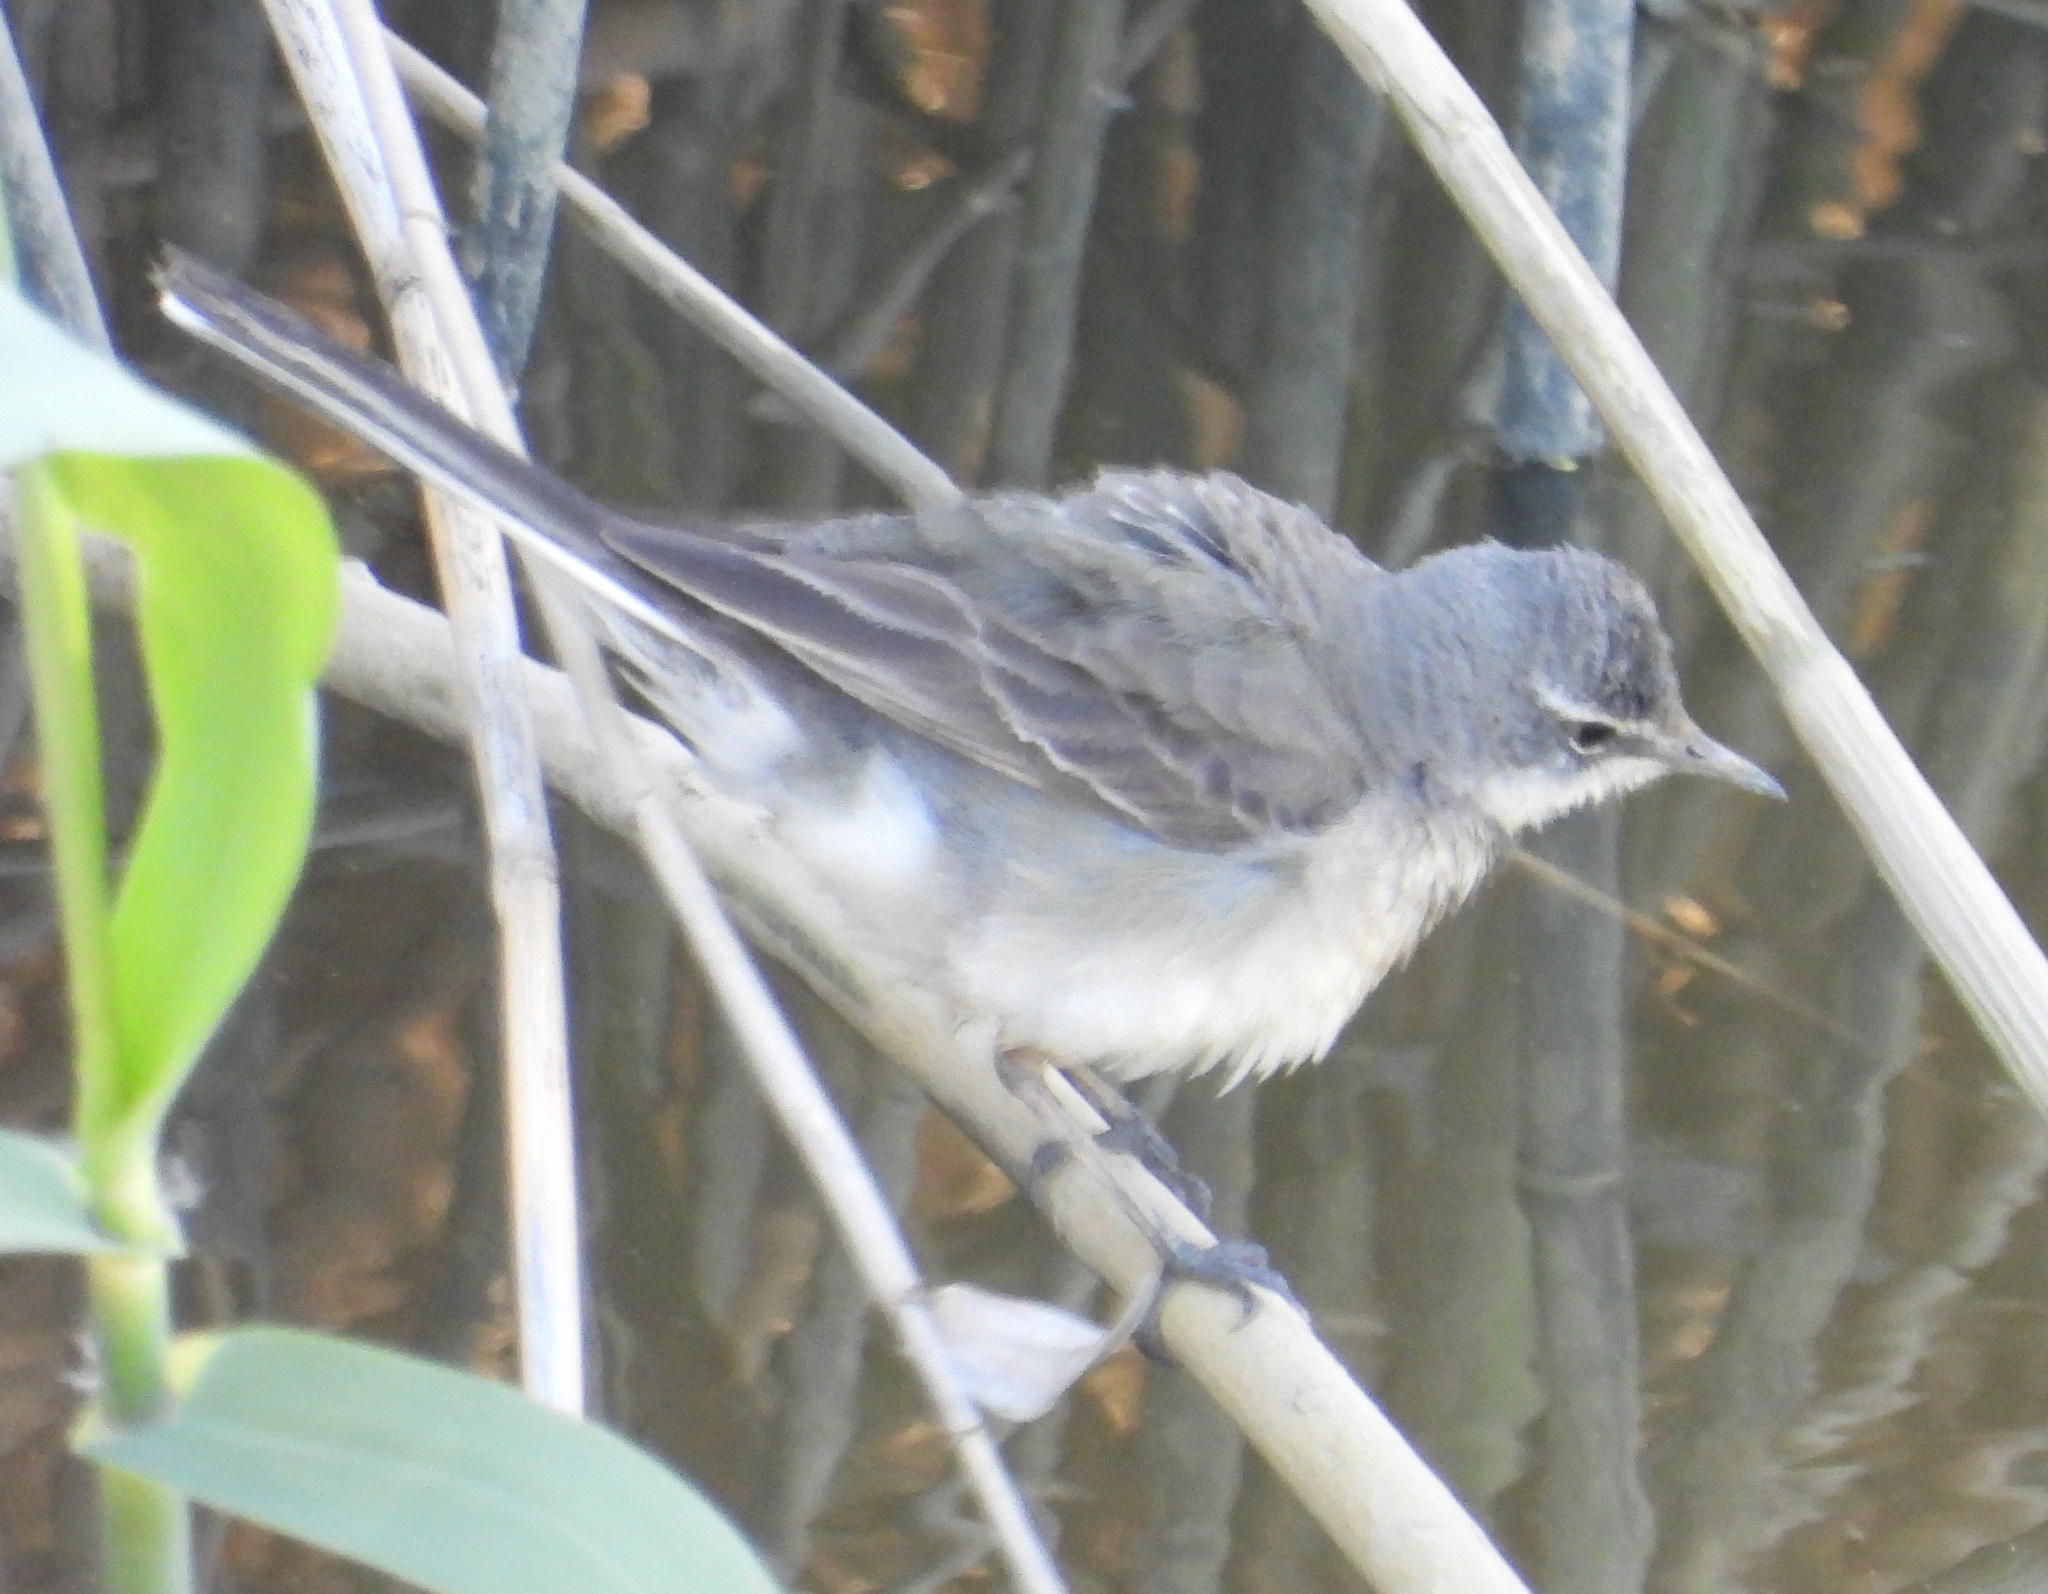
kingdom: Animalia
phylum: Chordata
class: Aves
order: Passeriformes
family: Motacillidae
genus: Motacilla
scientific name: Motacilla capensis
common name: Cape wagtail
